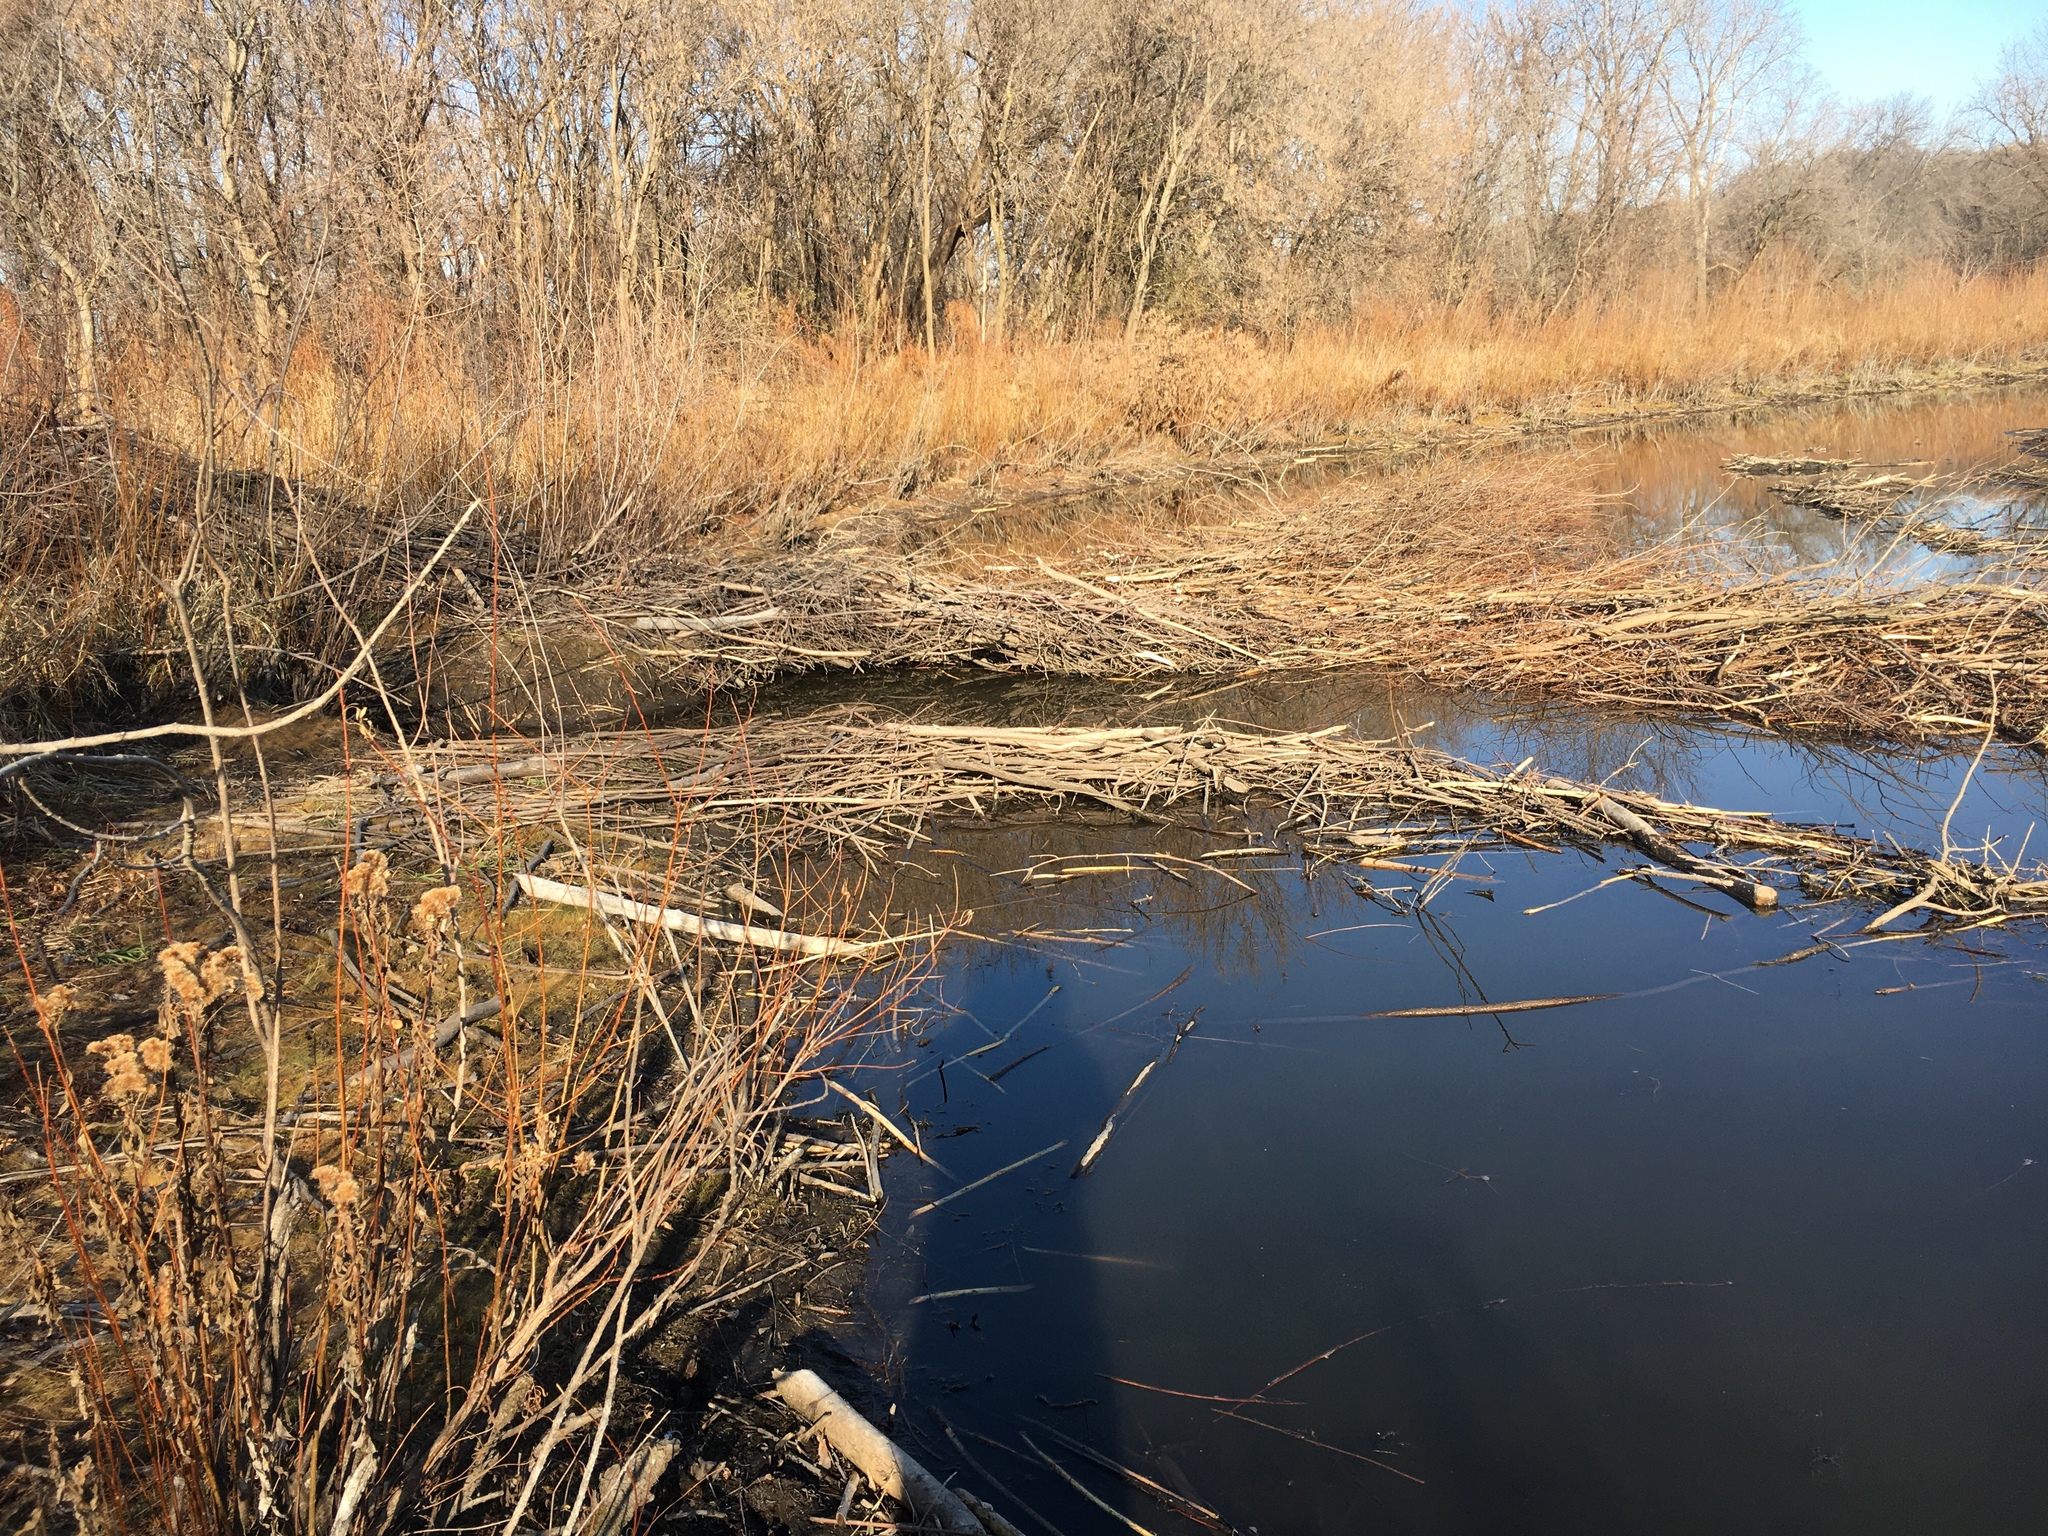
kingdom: Animalia
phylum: Chordata
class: Mammalia
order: Rodentia
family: Castoridae
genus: Castor
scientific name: Castor canadensis
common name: American beaver
